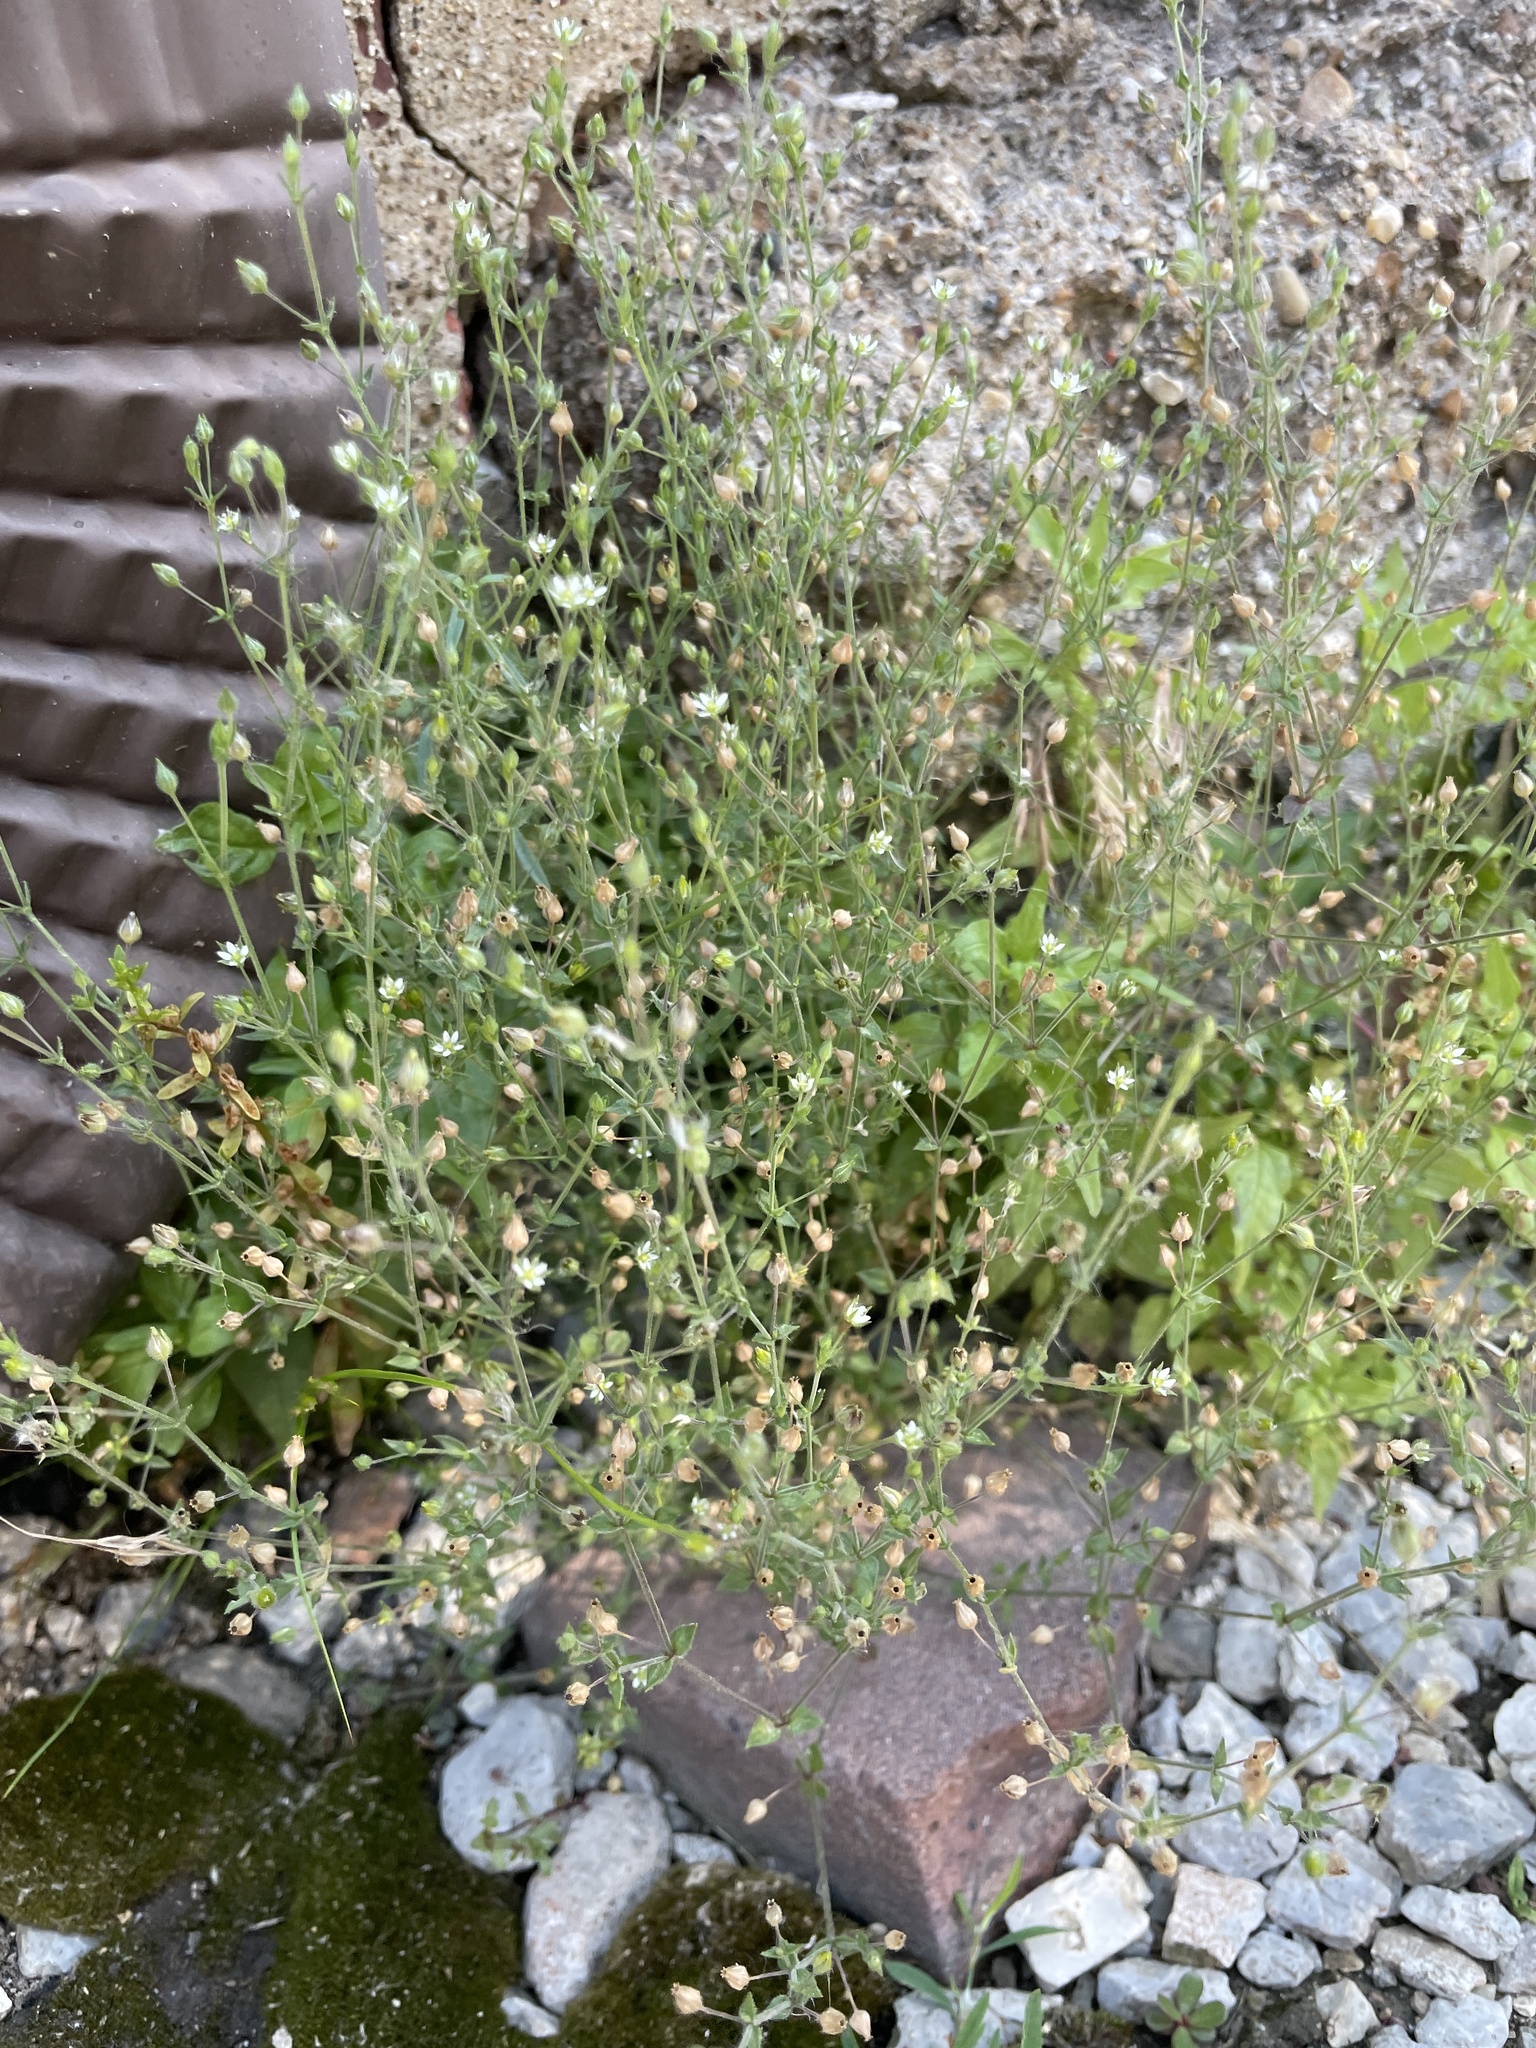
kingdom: Plantae
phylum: Tracheophyta
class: Magnoliopsida
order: Caryophyllales
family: Caryophyllaceae
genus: Arenaria
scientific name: Arenaria serpyllifolia
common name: Thyme-leaved sandwort
